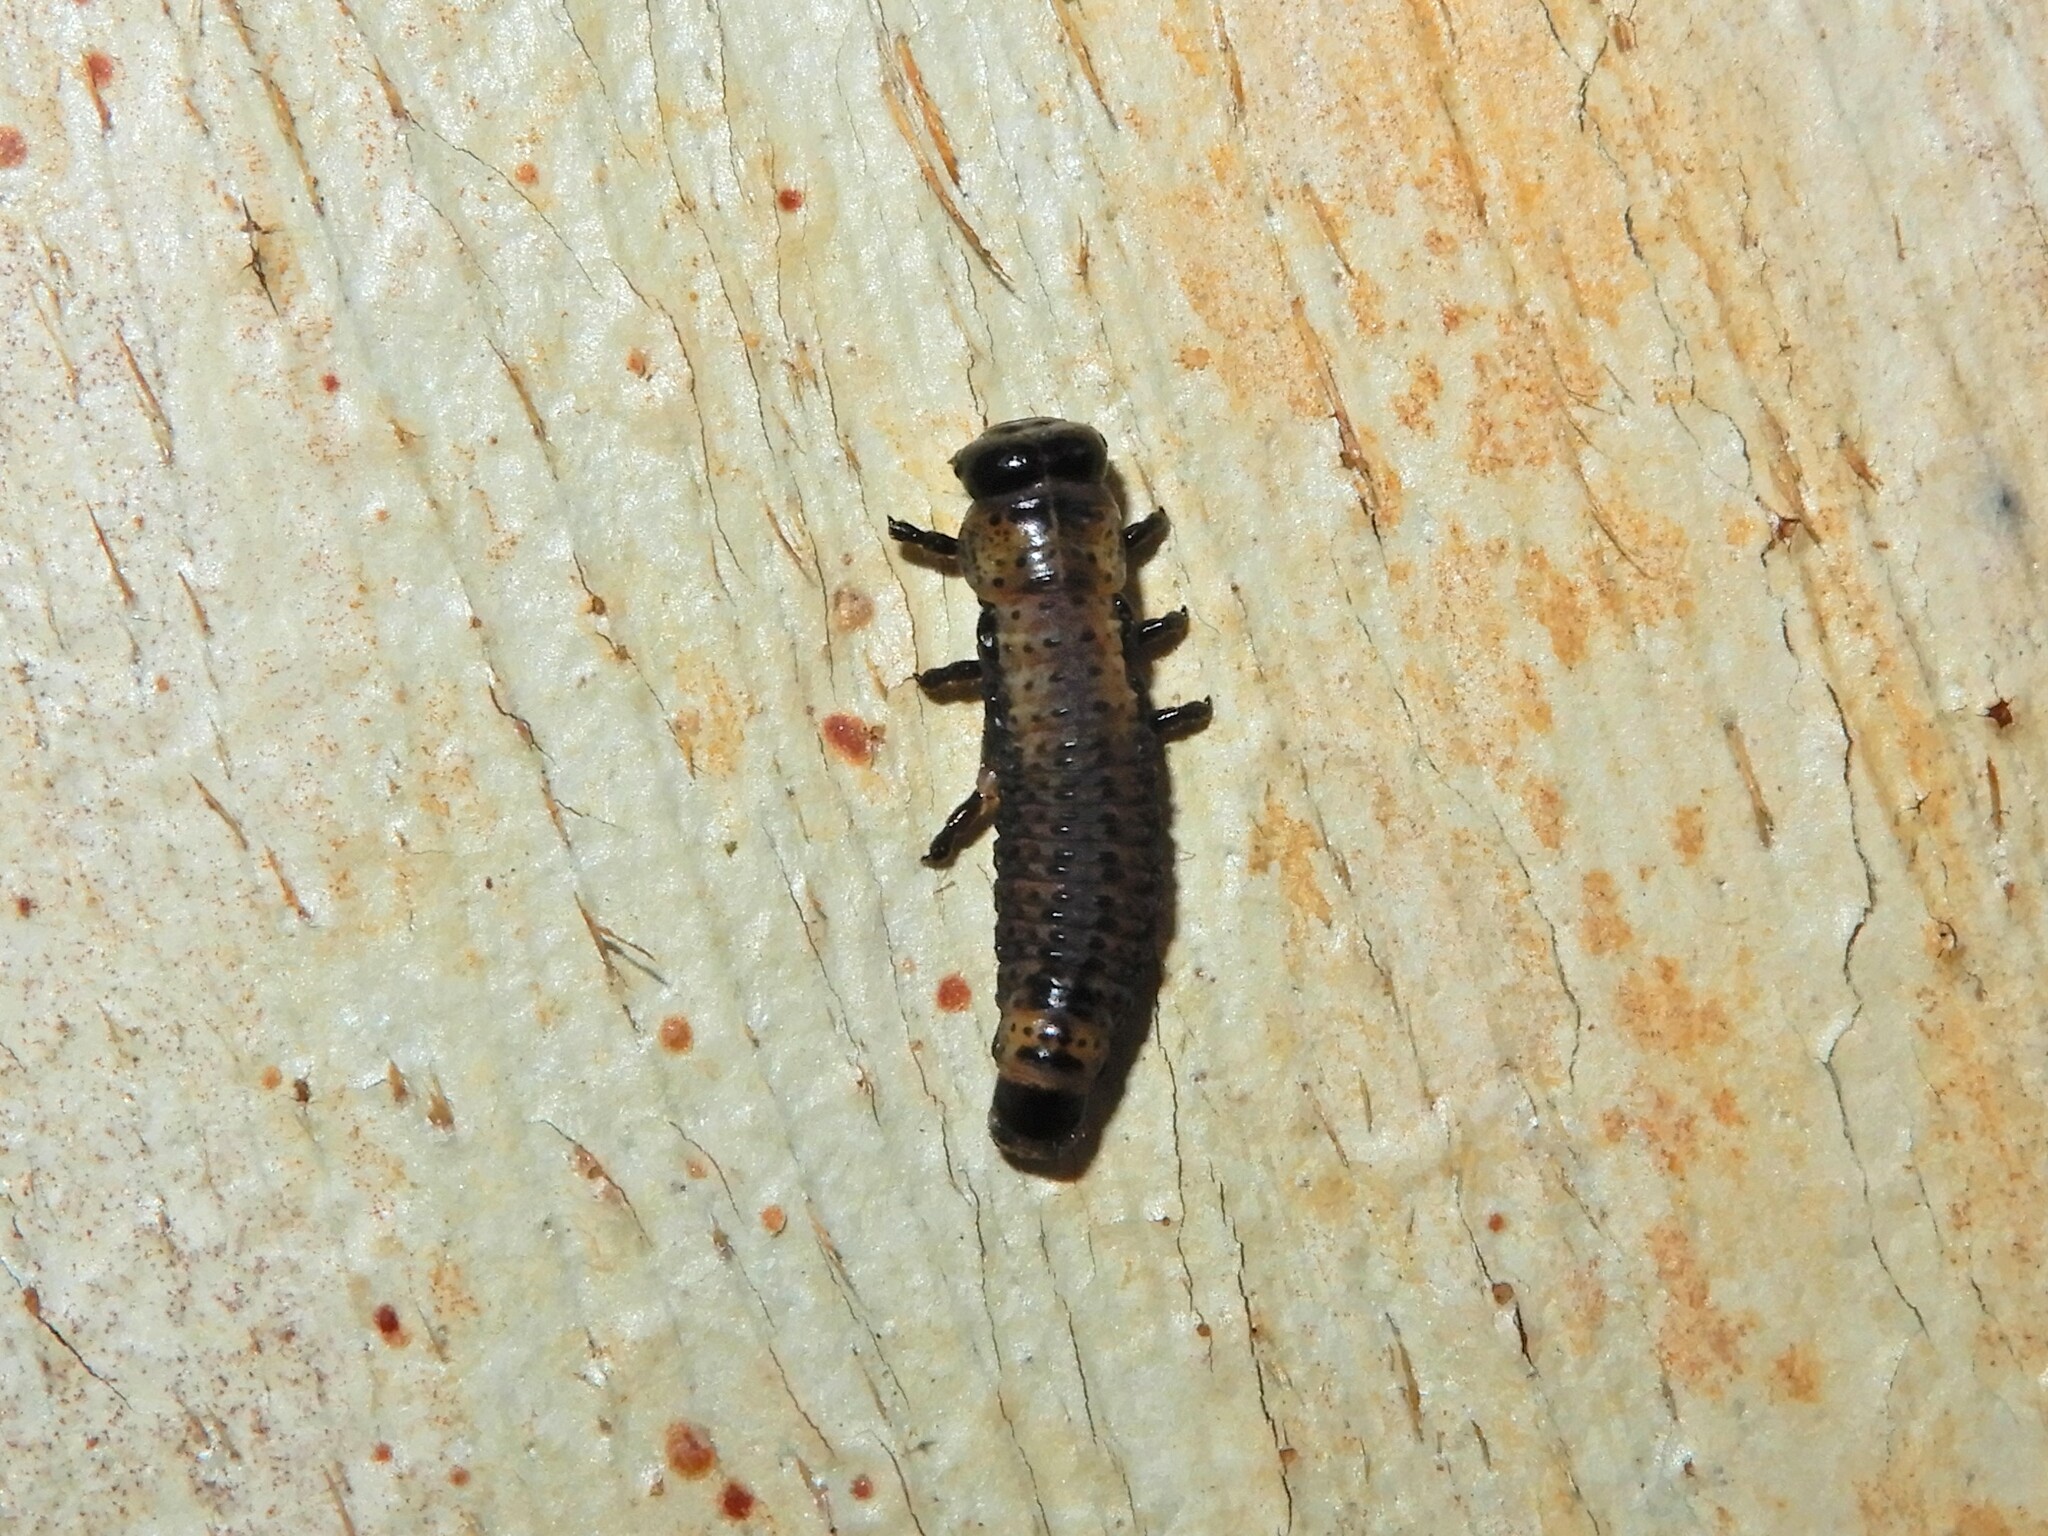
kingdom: Animalia
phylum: Arthropoda
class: Insecta
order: Coleoptera
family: Chrysomelidae
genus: Paropsis
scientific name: Paropsis charybdis
